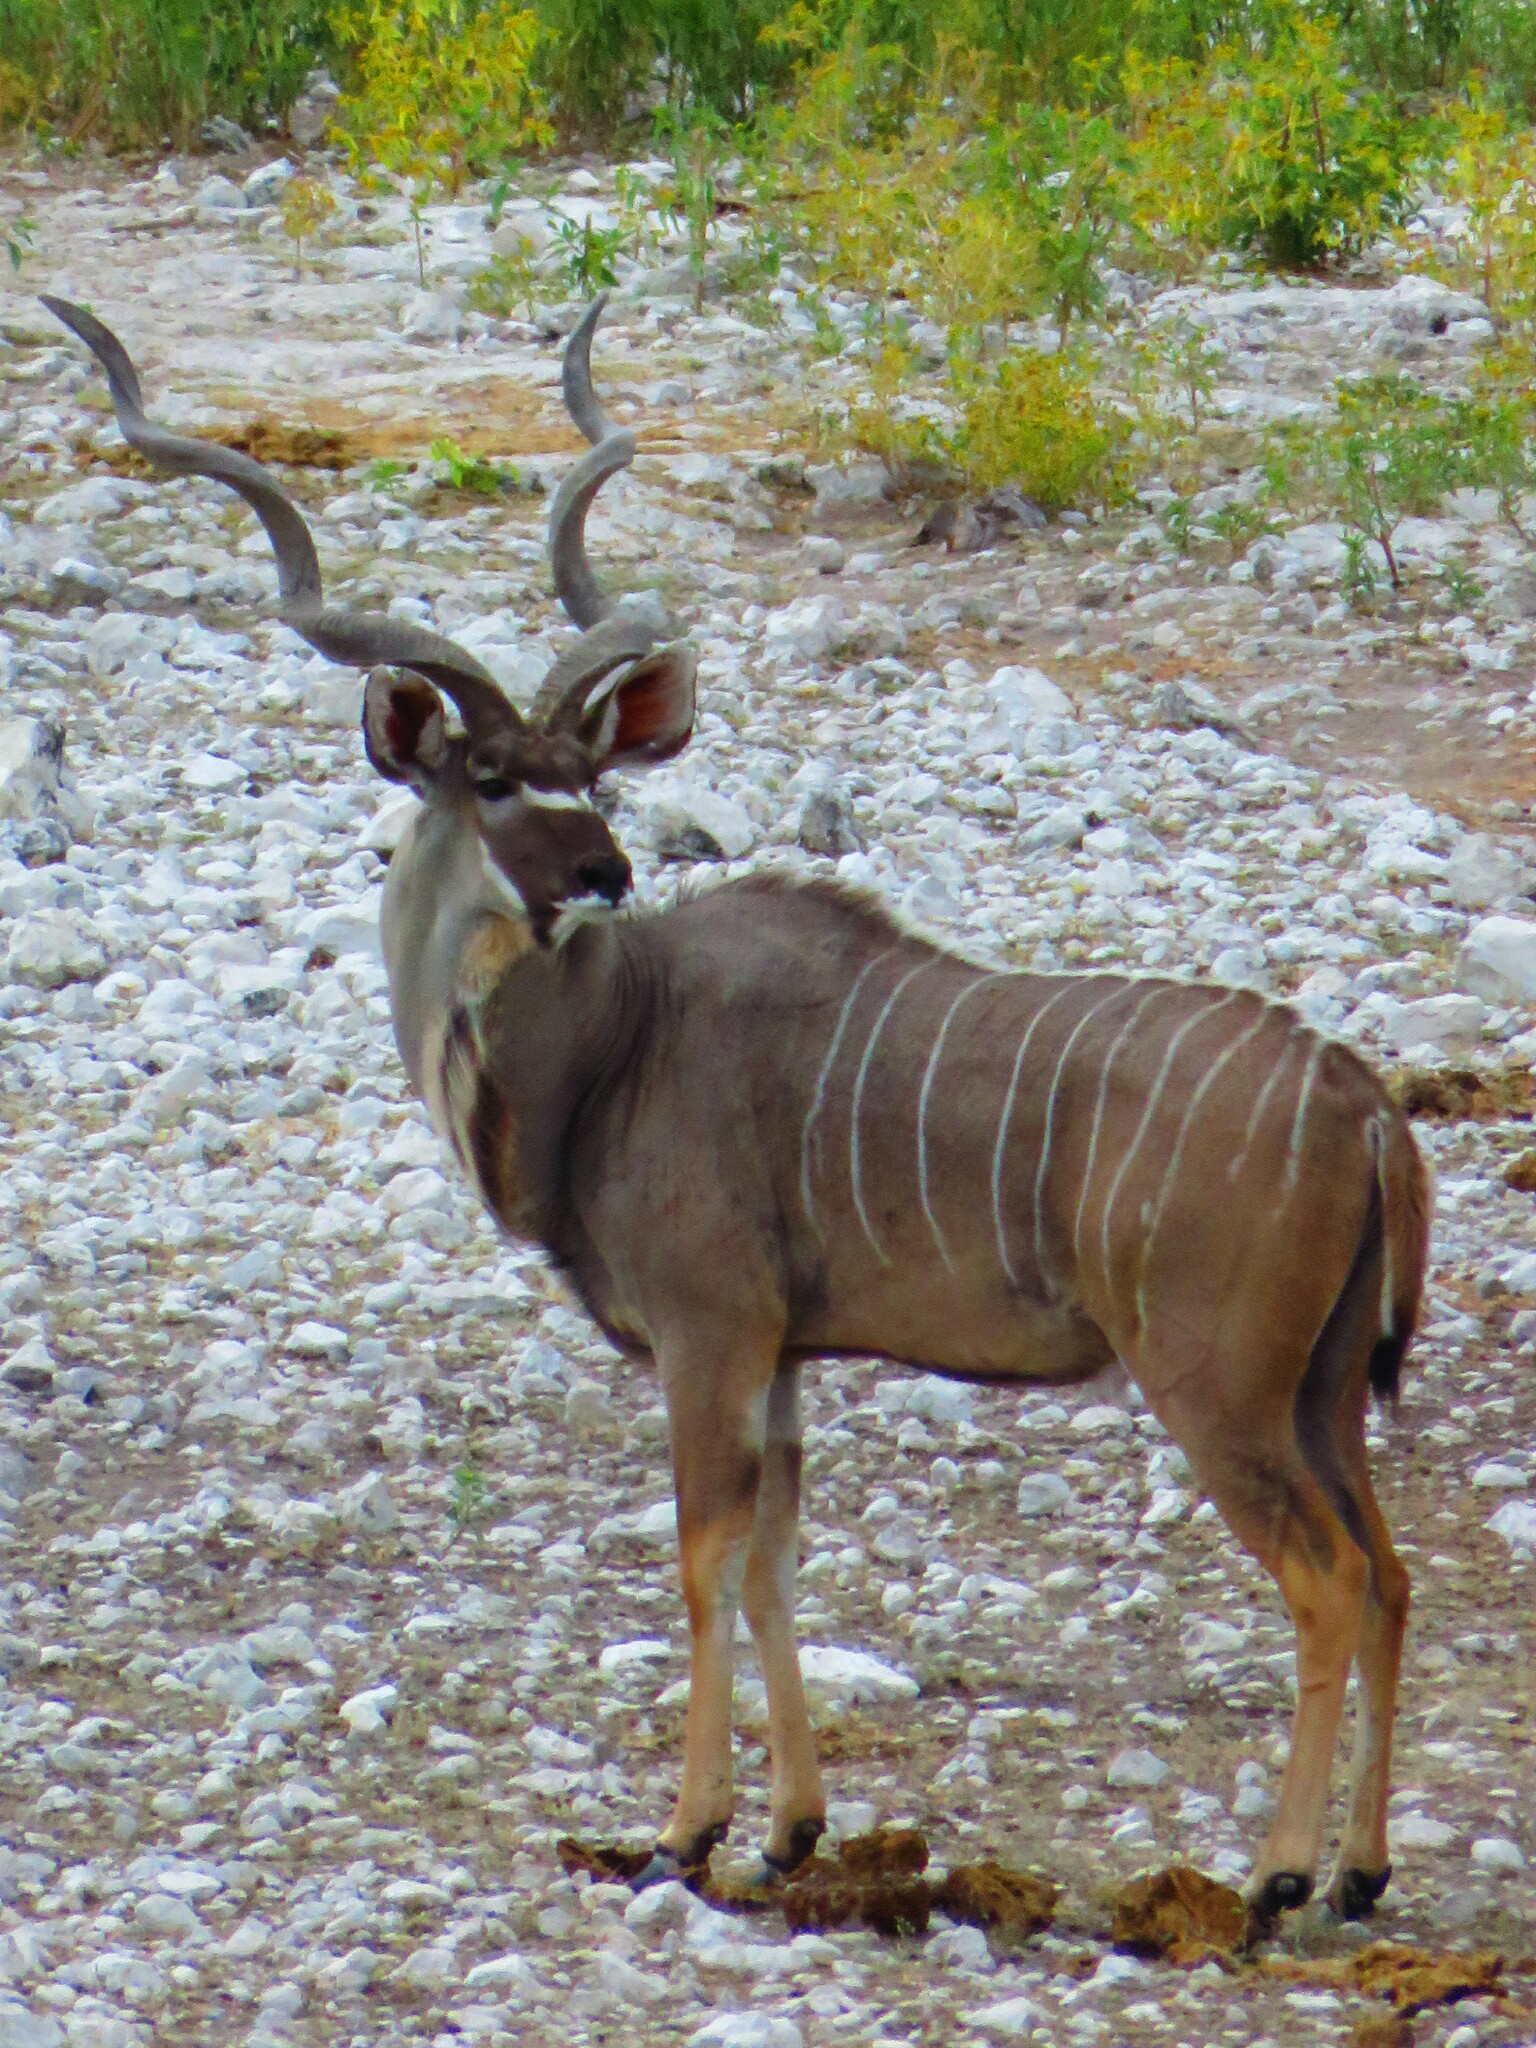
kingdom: Animalia
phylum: Chordata
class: Mammalia
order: Artiodactyla
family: Bovidae
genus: Tragelaphus
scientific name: Tragelaphus strepsiceros
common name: Greater kudu
